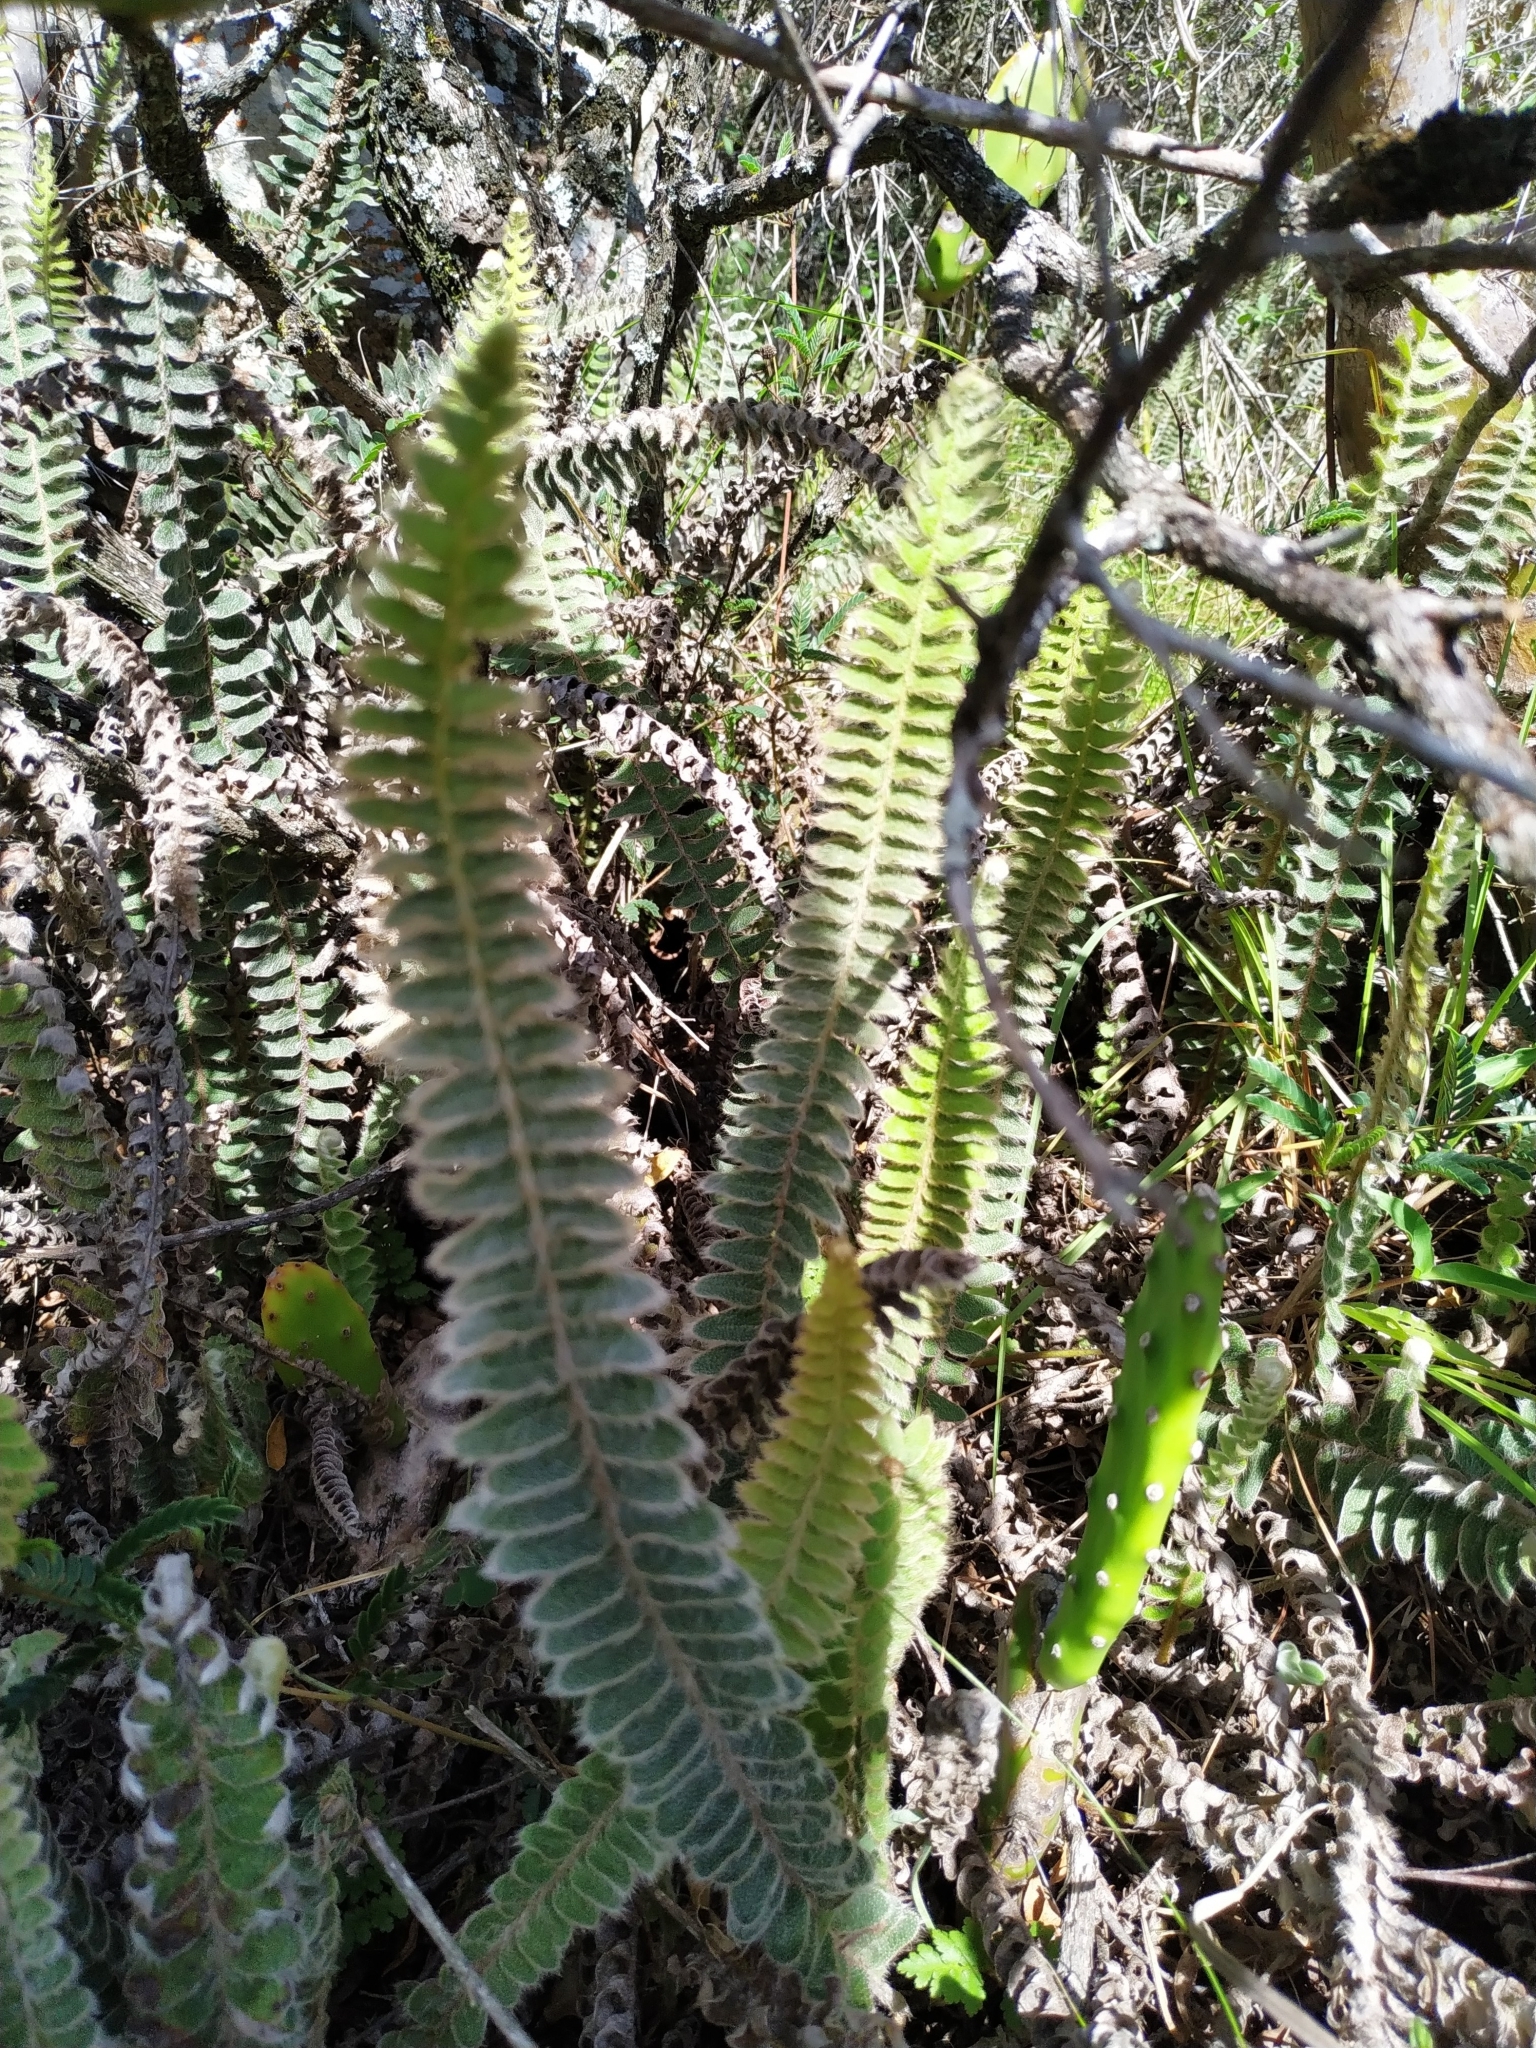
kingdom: Plantae
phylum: Tracheophyta
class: Polypodiopsida
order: Polypodiales
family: Polypodiaceae
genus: Pleopeltis
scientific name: Pleopeltis lepidopteris
